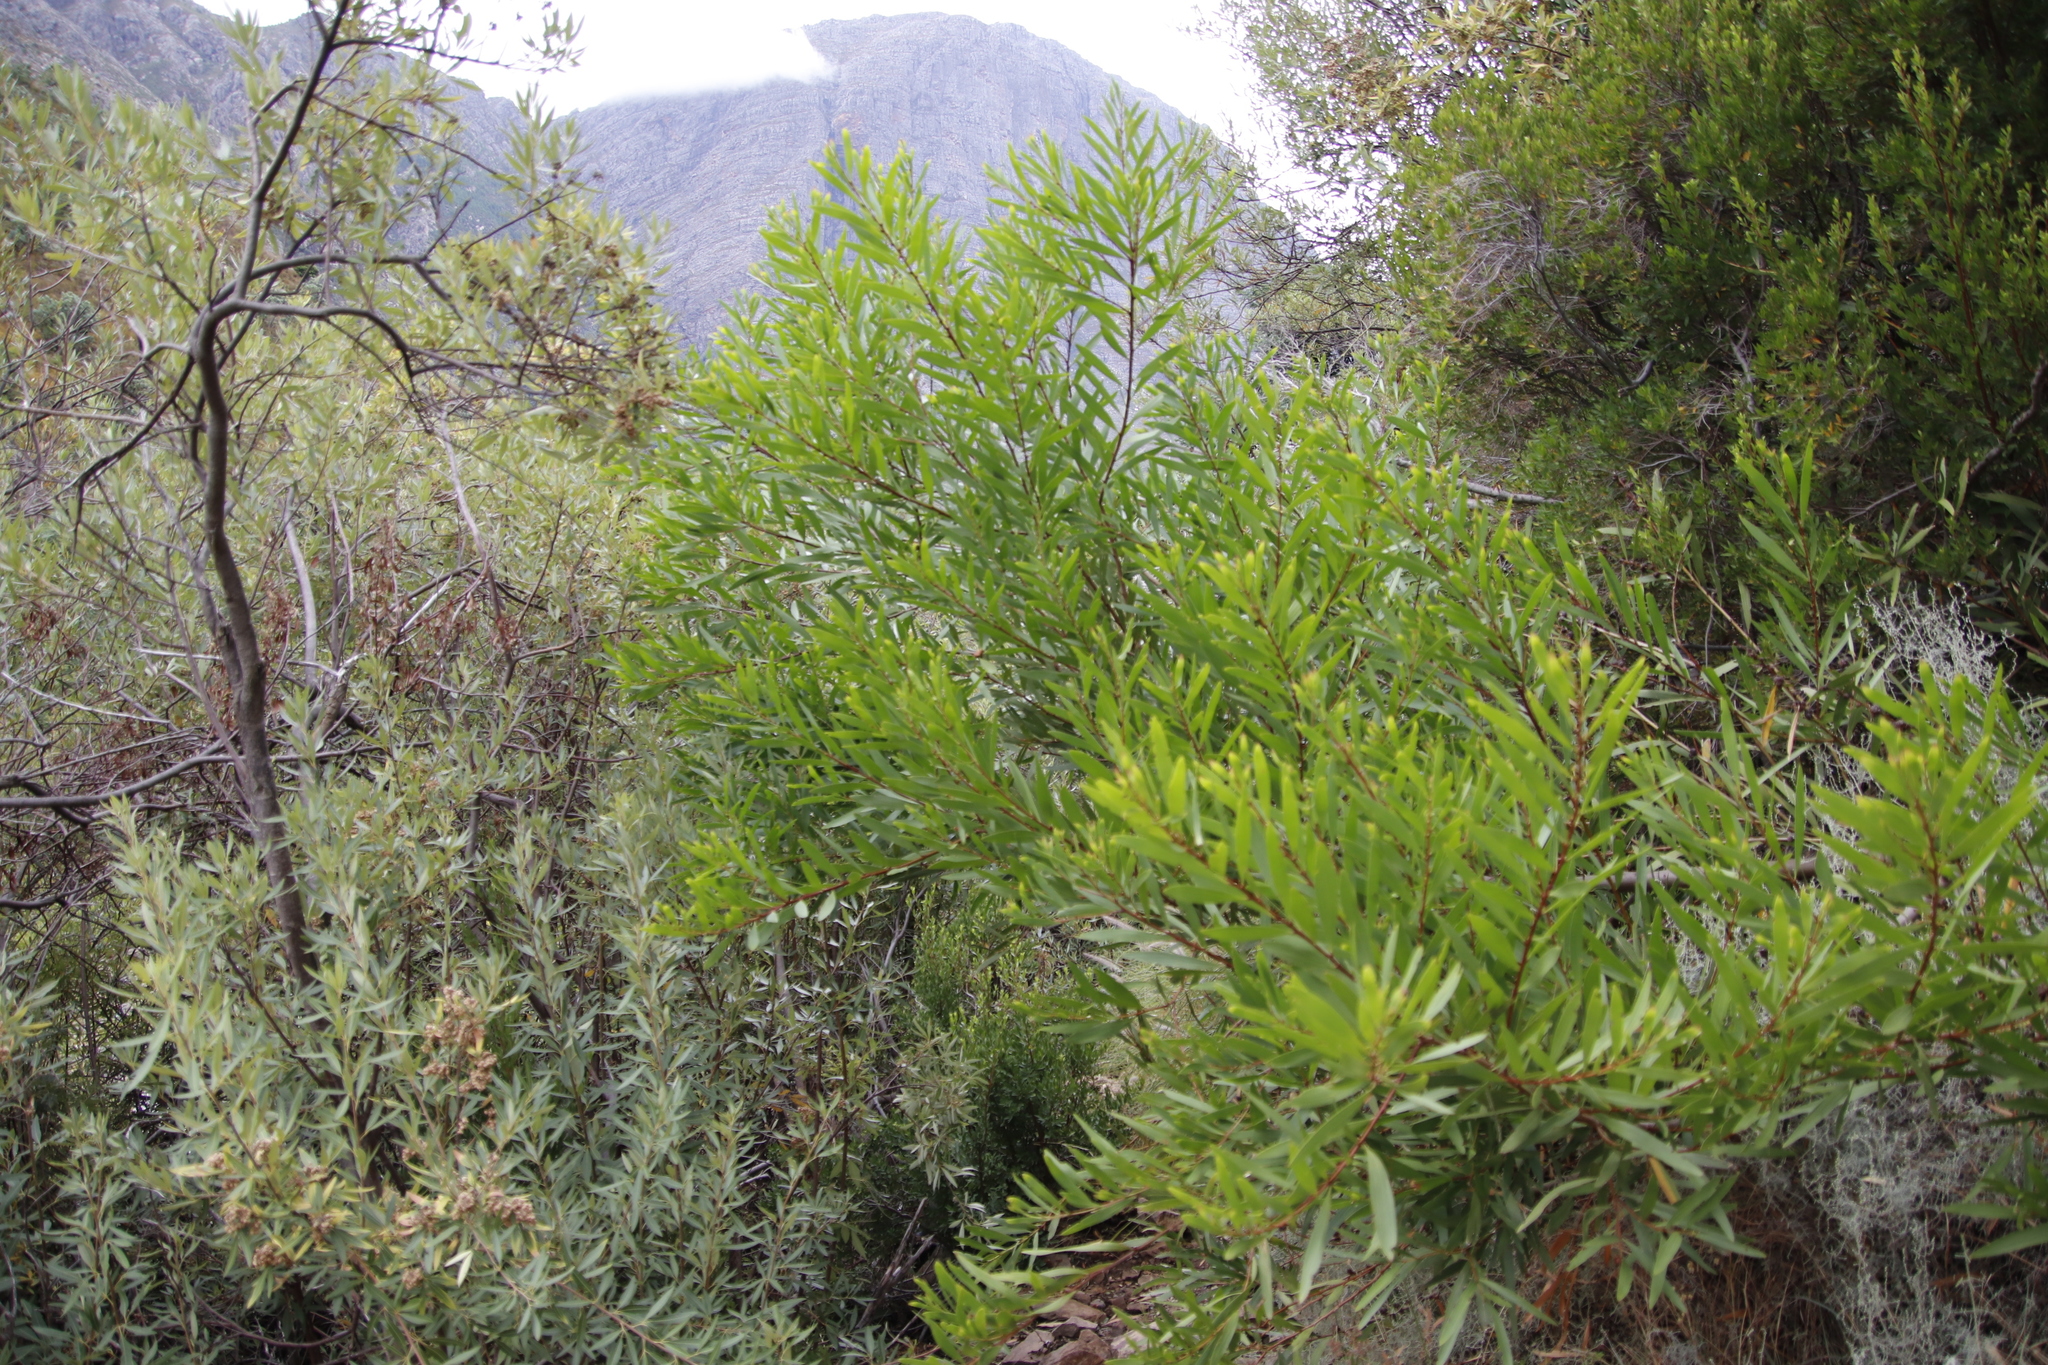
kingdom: Plantae
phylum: Tracheophyta
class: Magnoliopsida
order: Fabales
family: Fabaceae
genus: Acacia
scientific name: Acacia longifolia
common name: Sydney golden wattle
